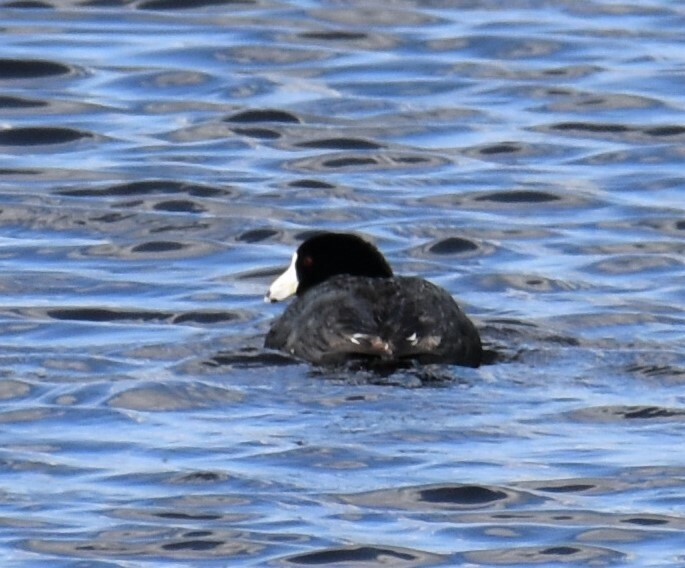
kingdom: Animalia
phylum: Chordata
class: Aves
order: Gruiformes
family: Rallidae
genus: Fulica
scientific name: Fulica americana
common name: American coot
